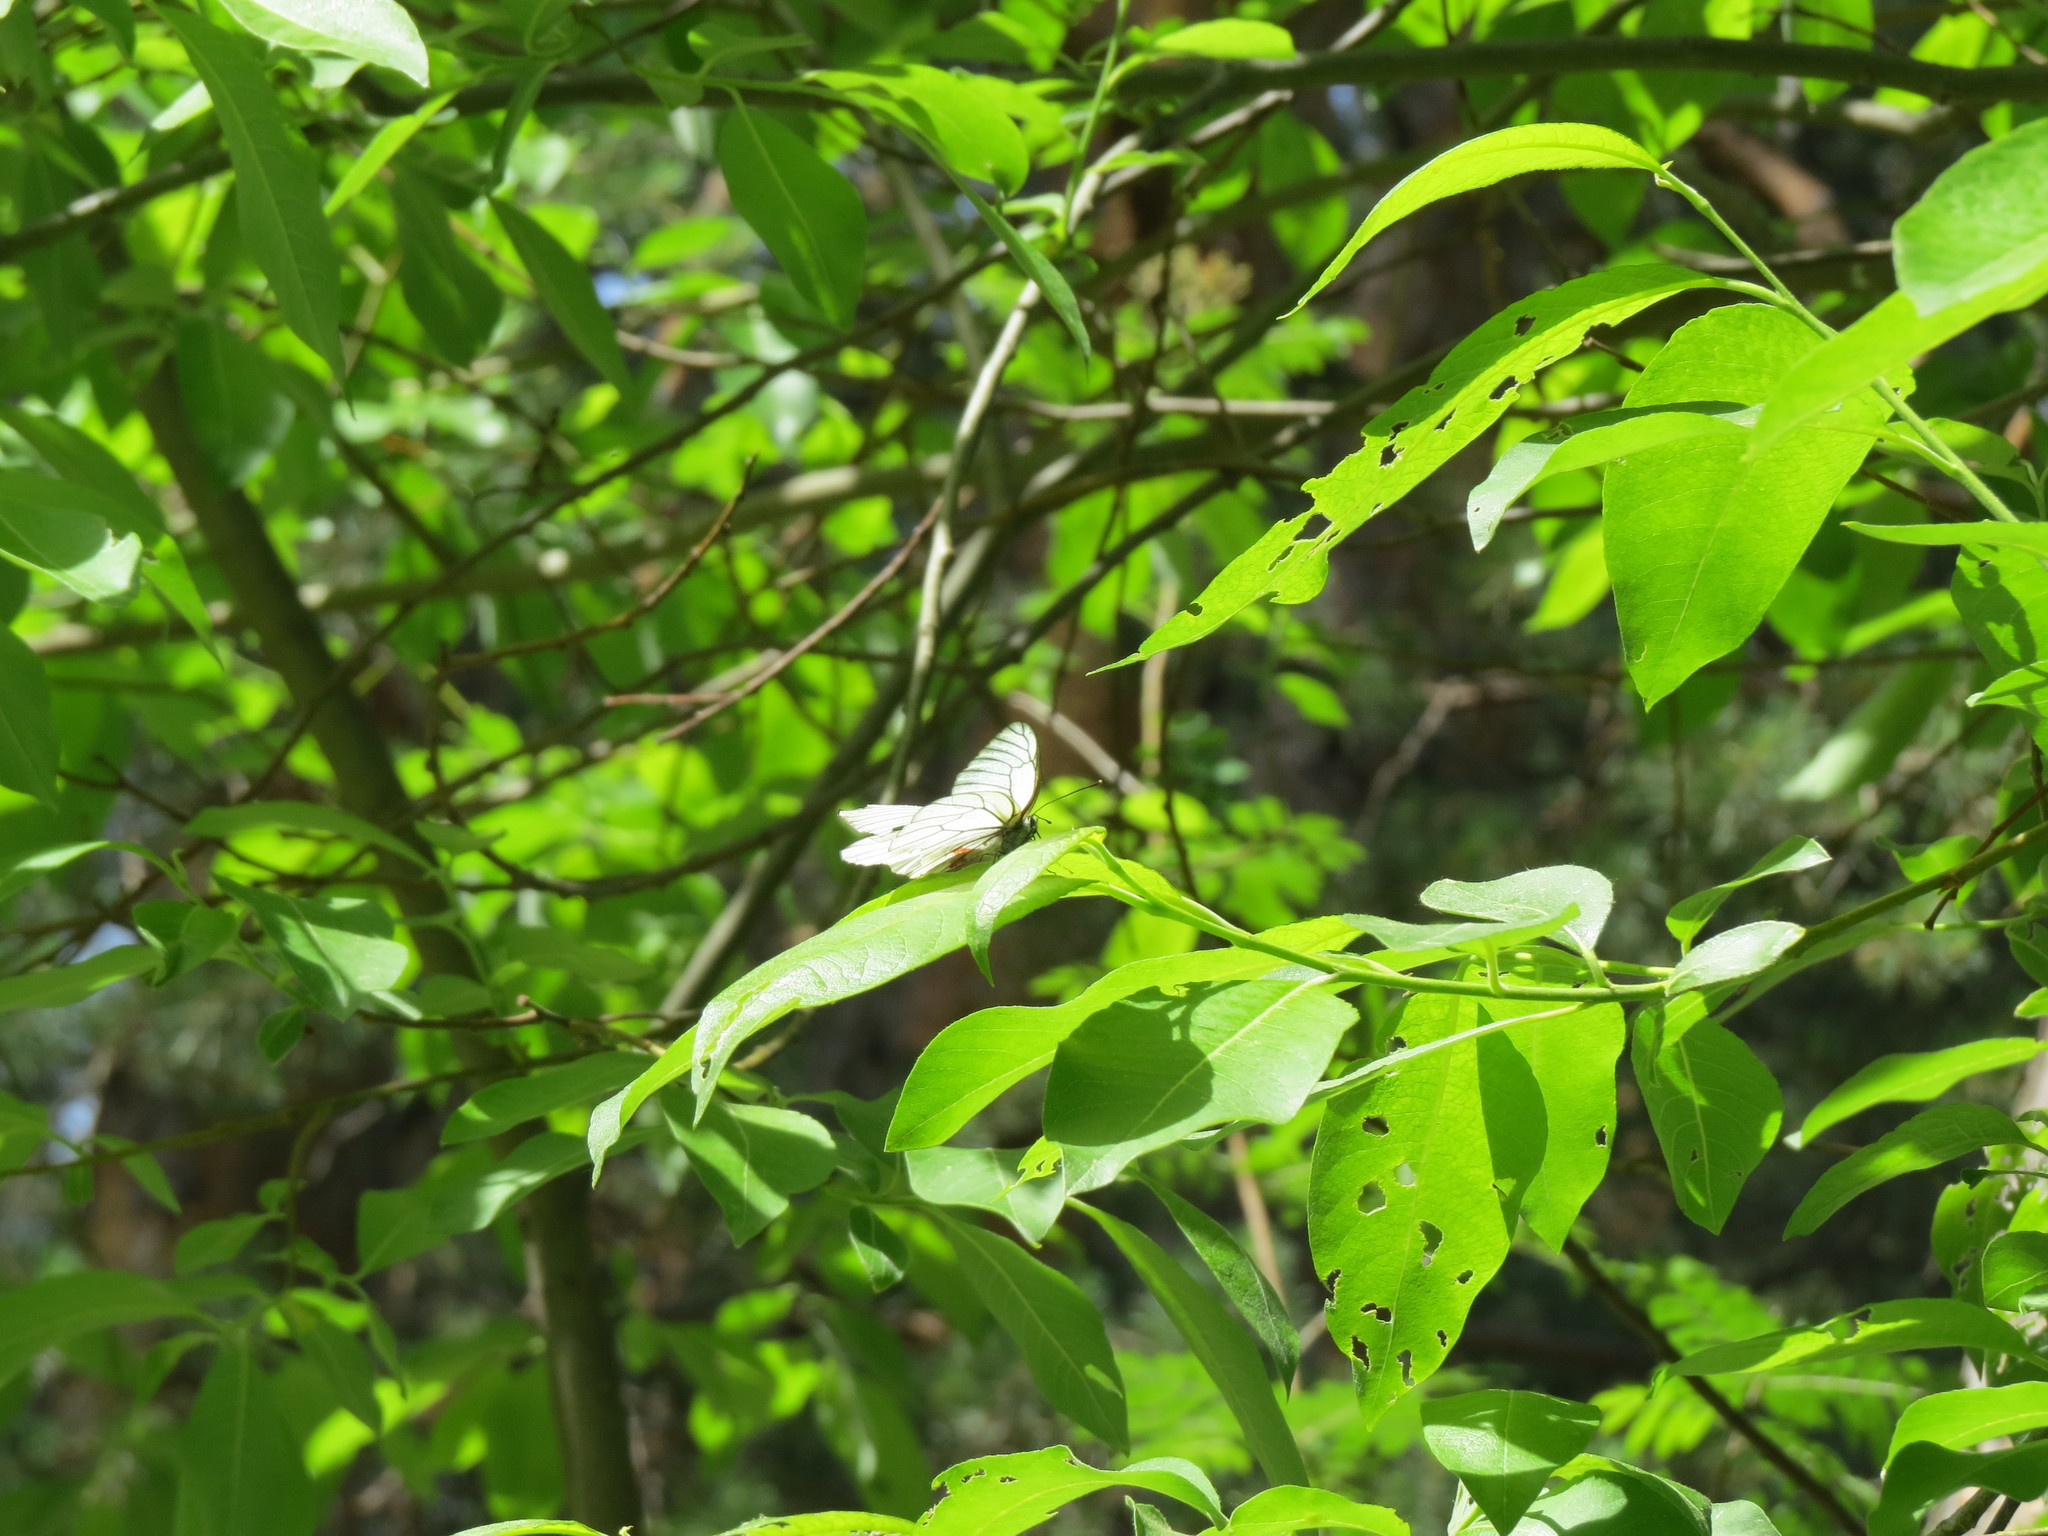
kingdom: Animalia
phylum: Arthropoda
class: Insecta
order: Lepidoptera
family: Pieridae
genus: Aporia
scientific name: Aporia crataegi
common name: Black-veined white
